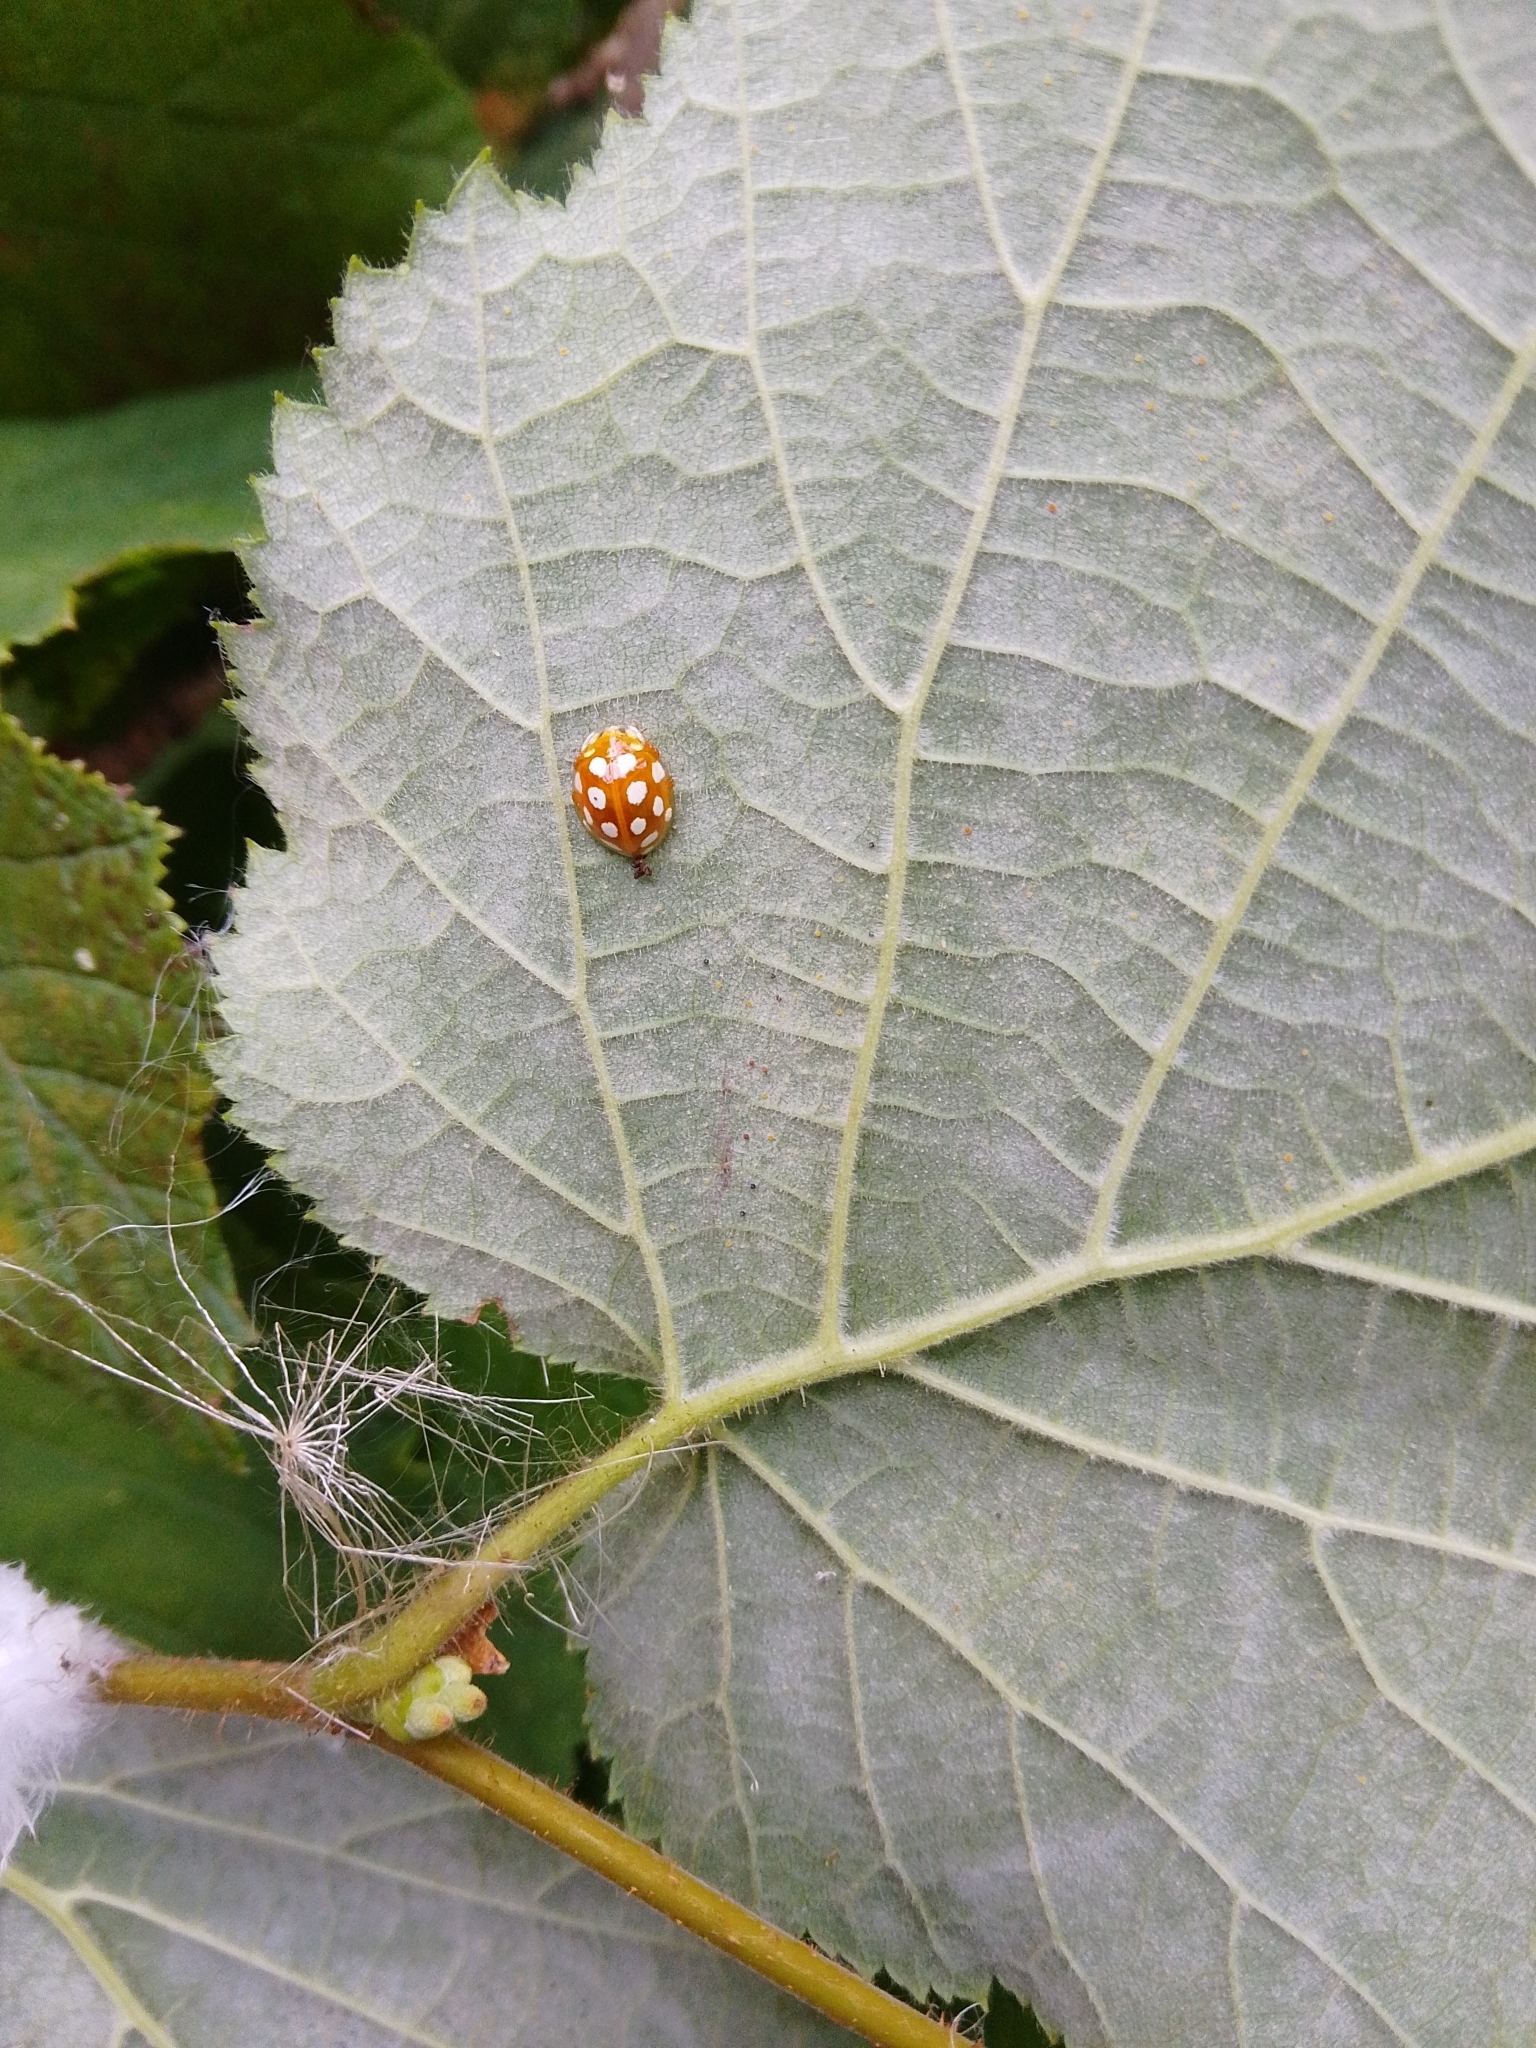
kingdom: Animalia
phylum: Arthropoda
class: Insecta
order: Coleoptera
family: Coccinellidae
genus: Halyzia
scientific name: Halyzia sedecimguttata
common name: Orange ladybird
